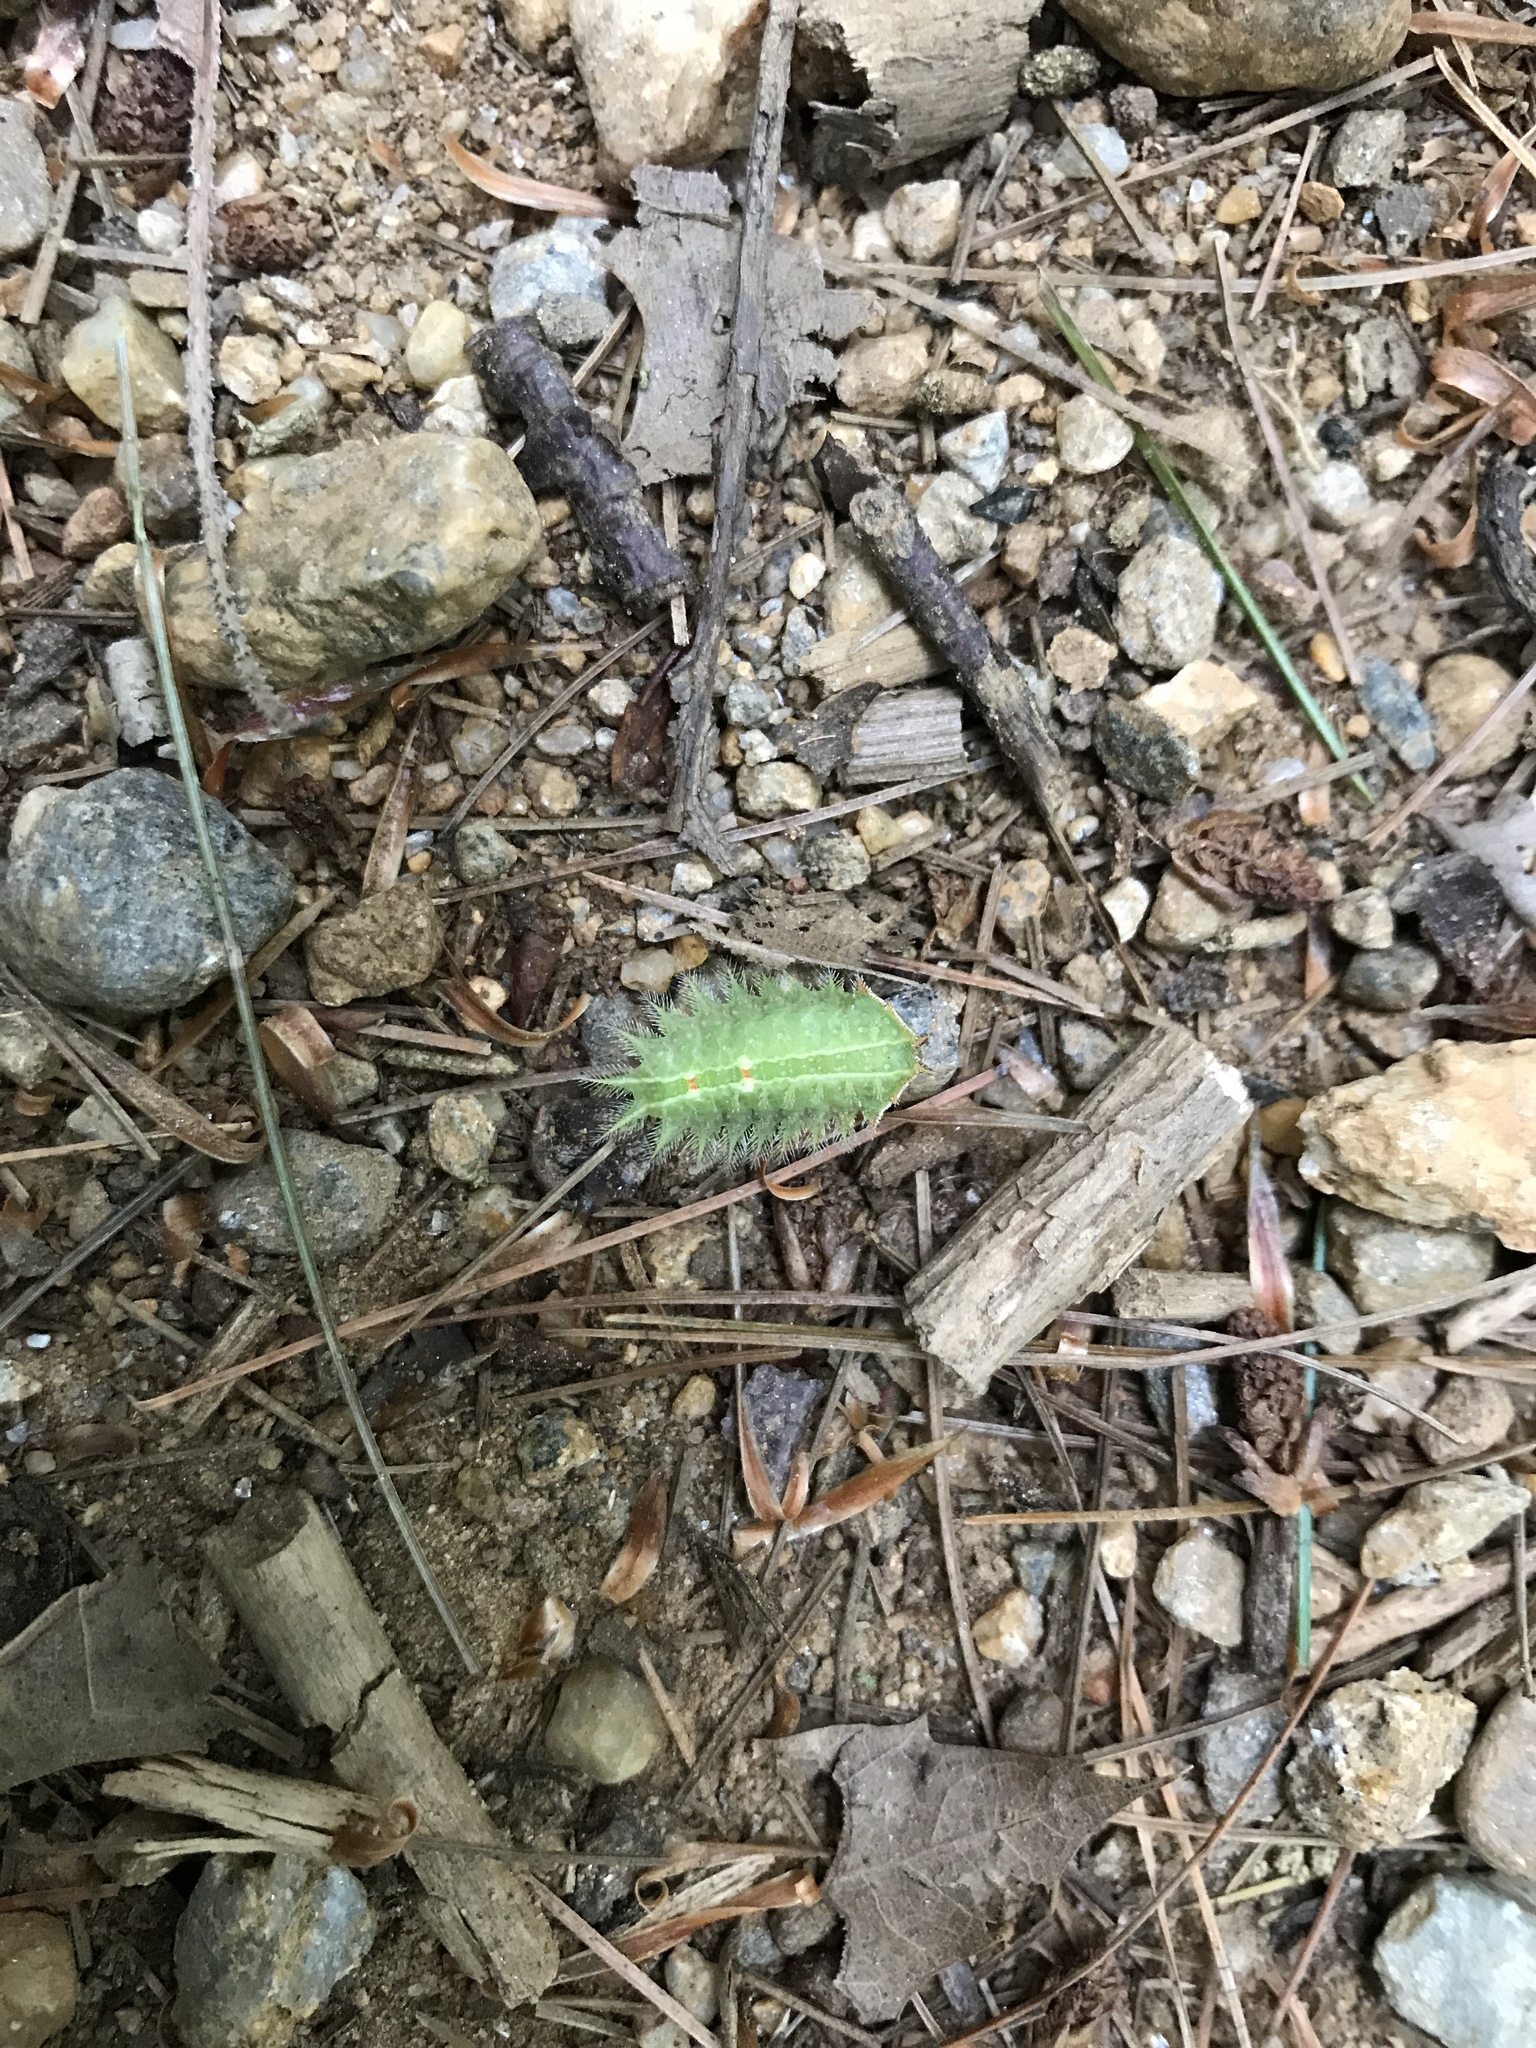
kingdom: Animalia
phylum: Arthropoda
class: Insecta
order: Lepidoptera
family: Limacodidae
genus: Isa
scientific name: Isa textula
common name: Crowned slug moth
